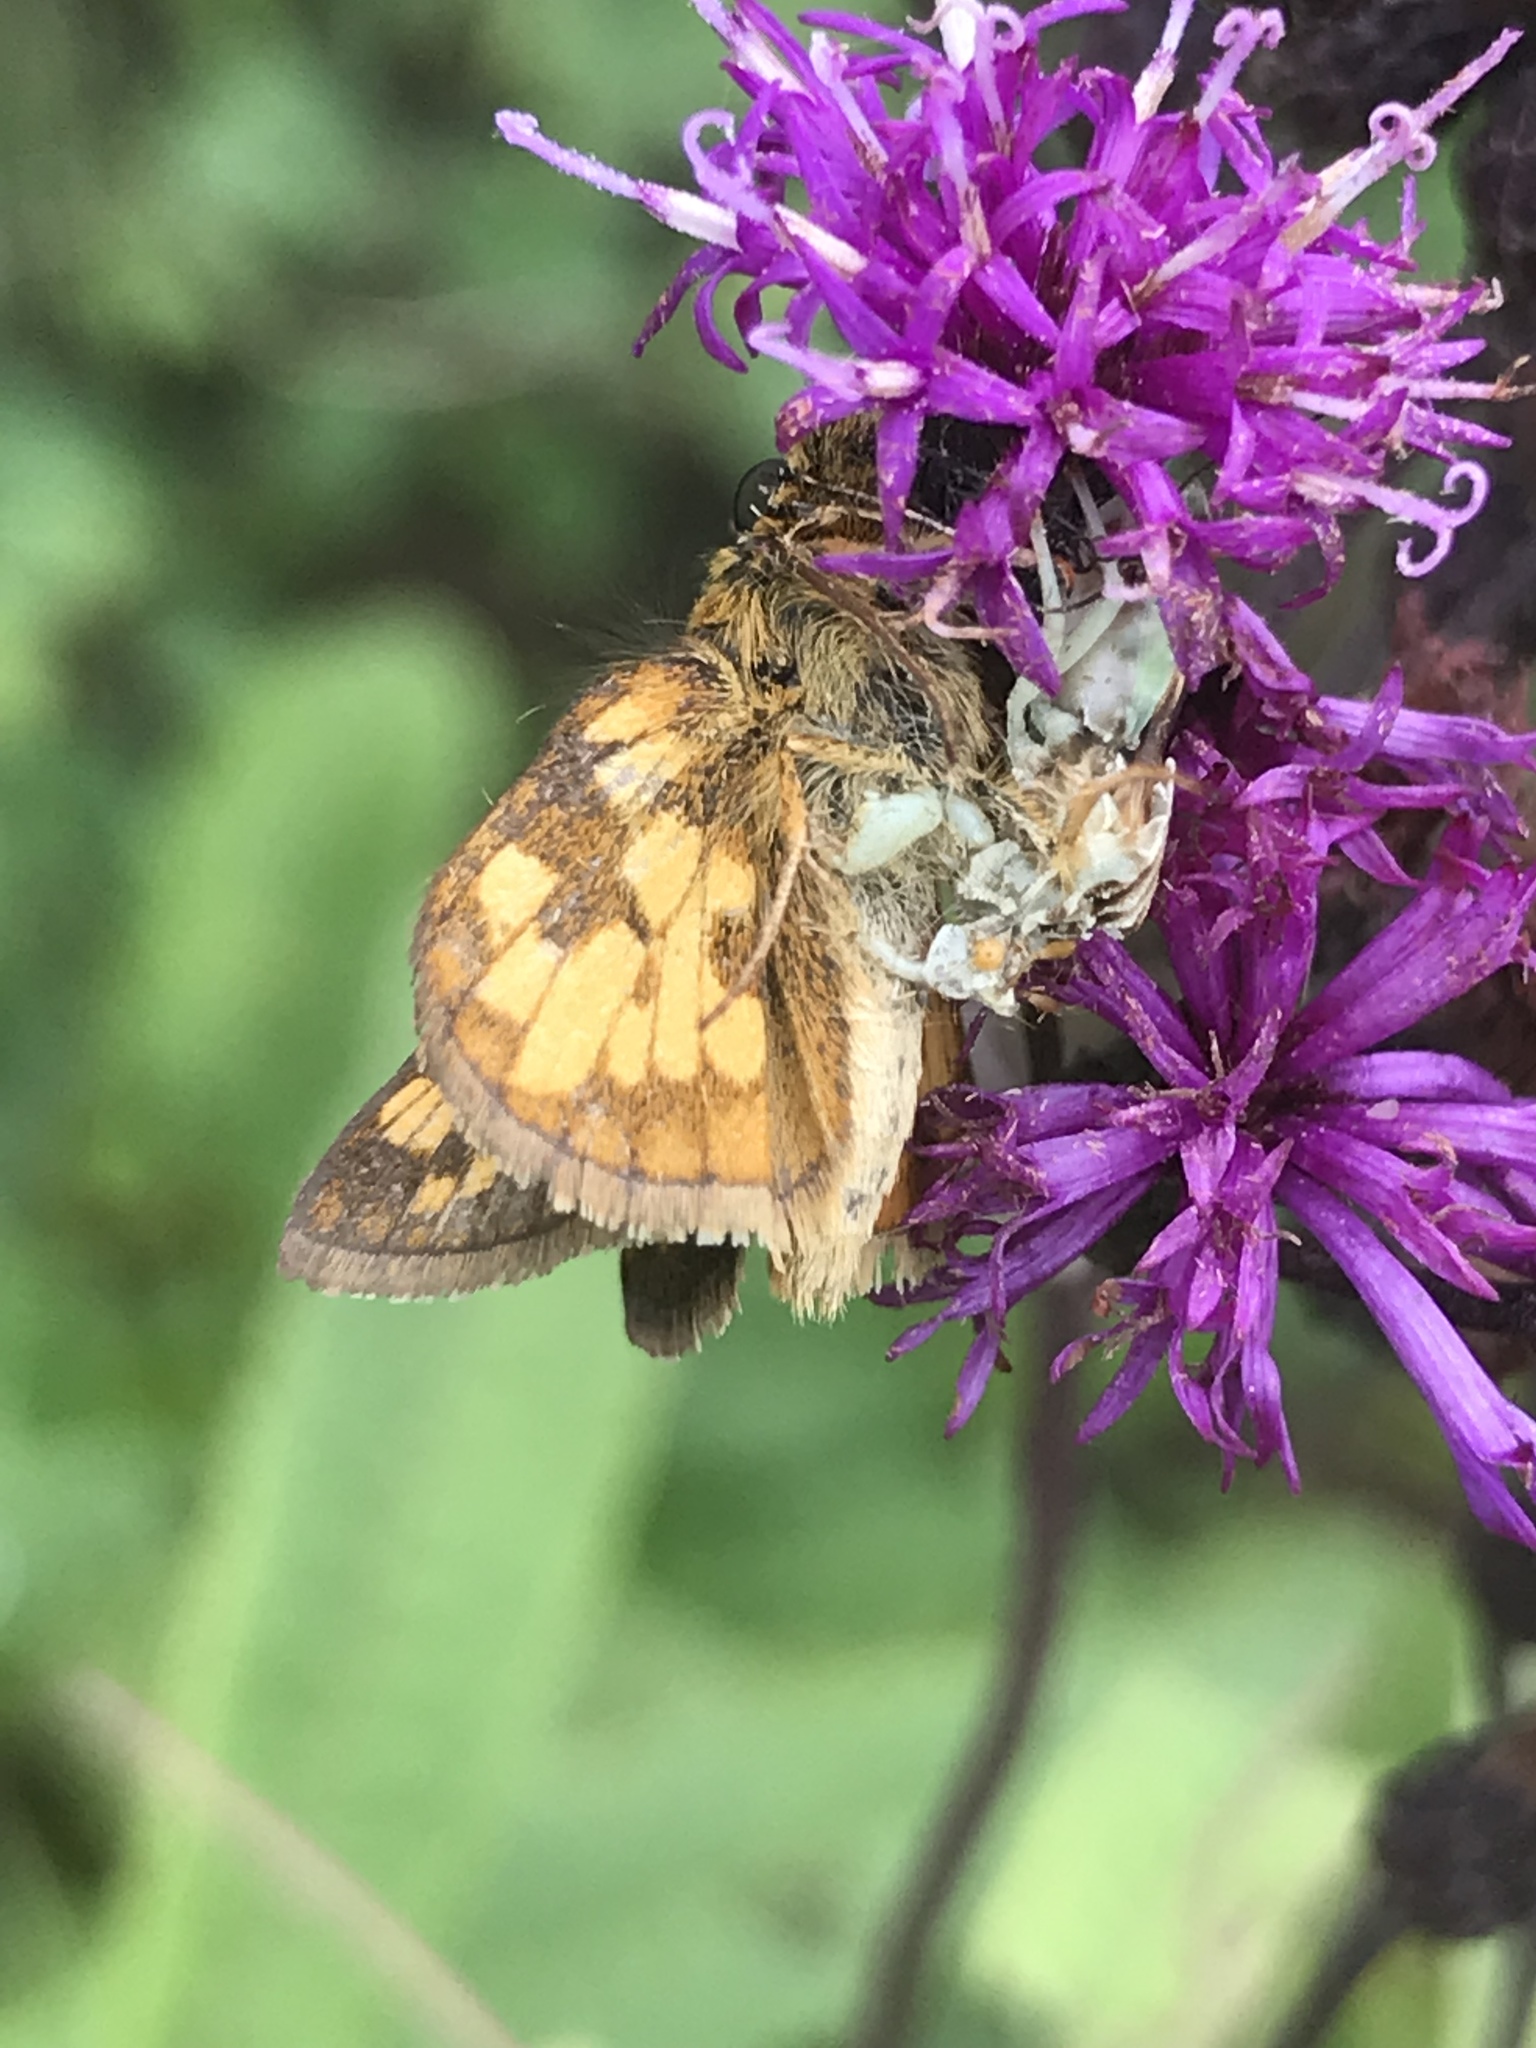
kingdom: Animalia
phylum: Arthropoda
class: Insecta
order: Lepidoptera
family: Hesperiidae
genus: Polites
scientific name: Polites coras
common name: Peck's skipper
